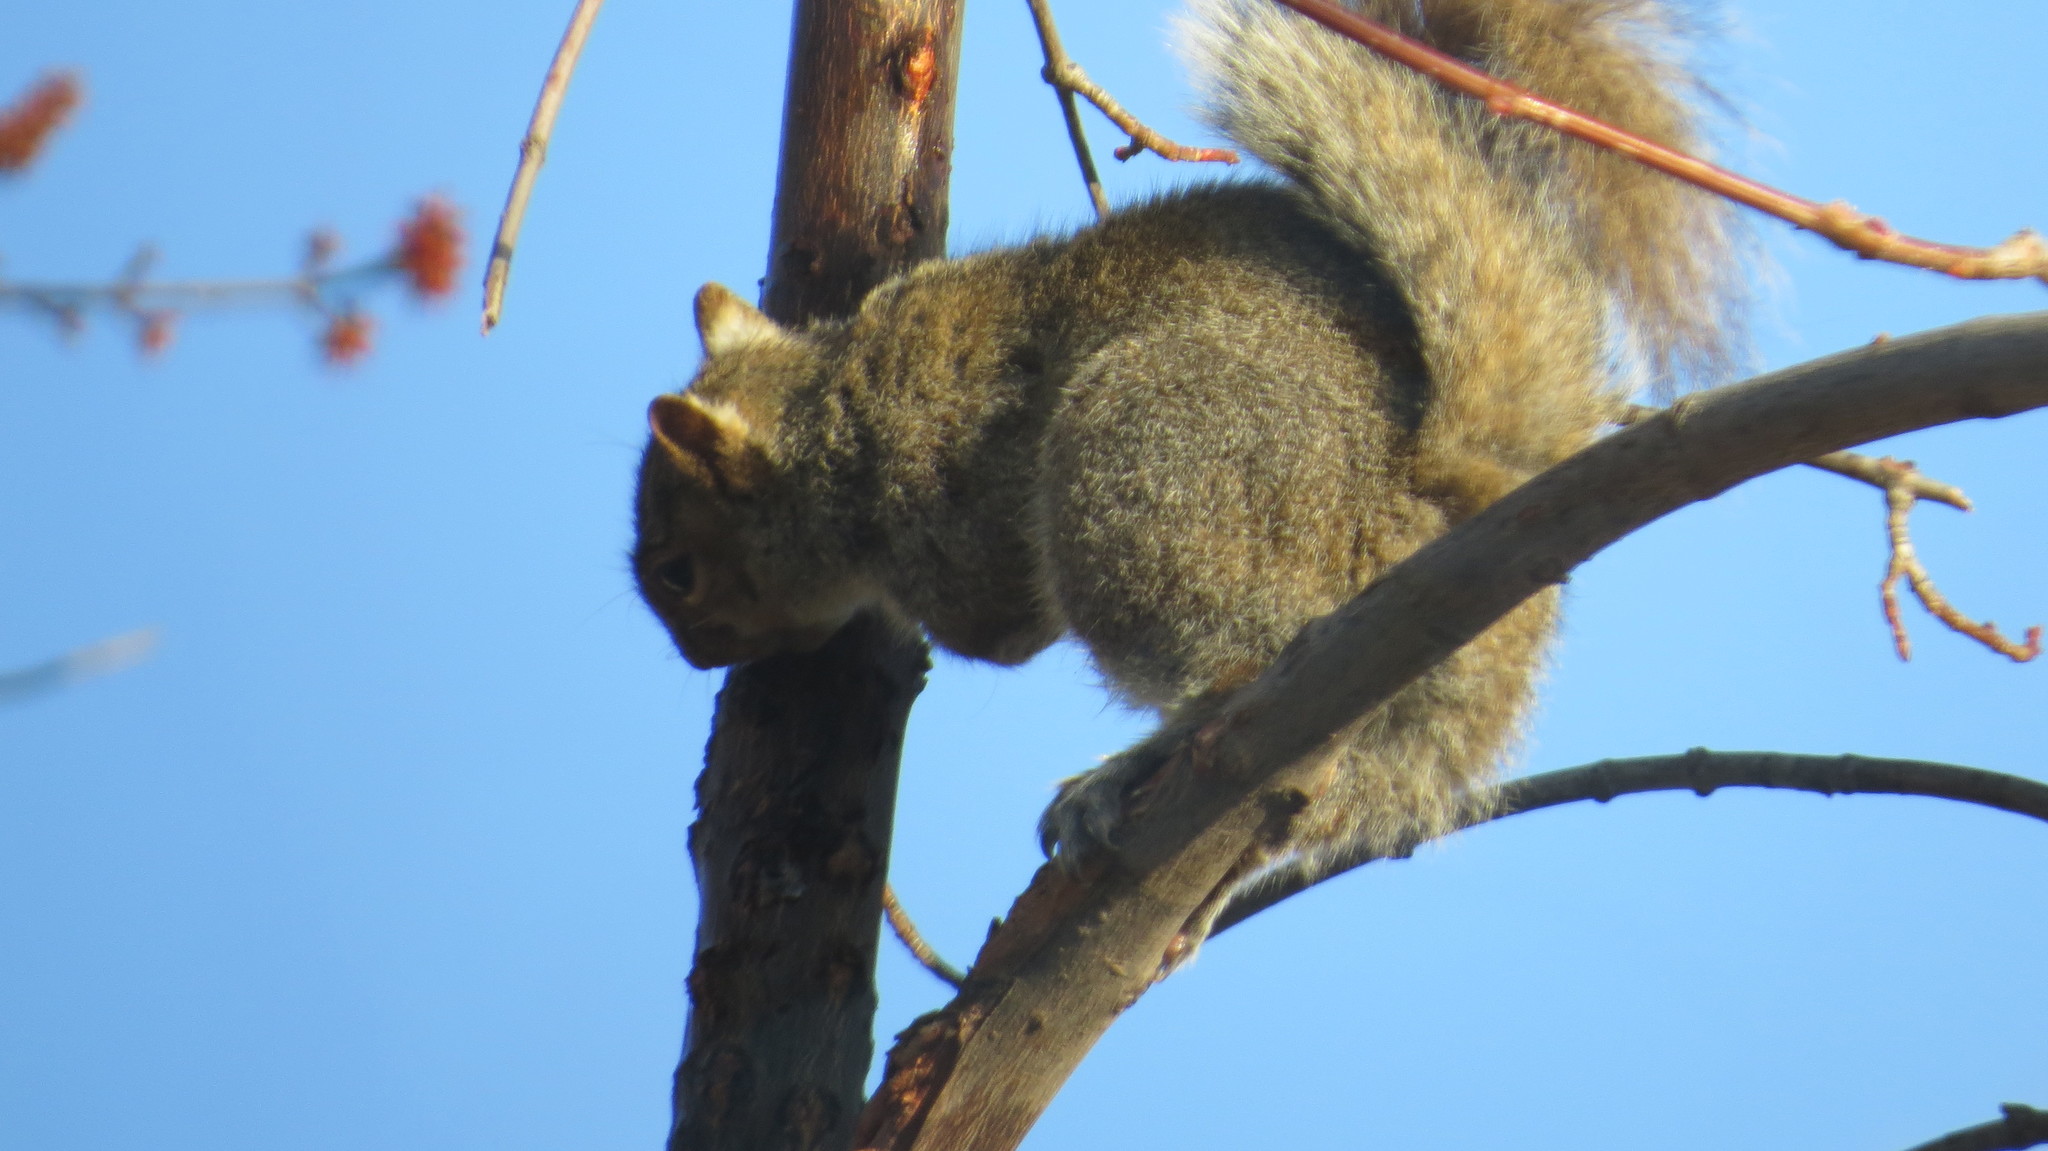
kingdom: Animalia
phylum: Chordata
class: Mammalia
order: Rodentia
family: Sciuridae
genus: Sciurus
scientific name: Sciurus carolinensis
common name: Eastern gray squirrel
